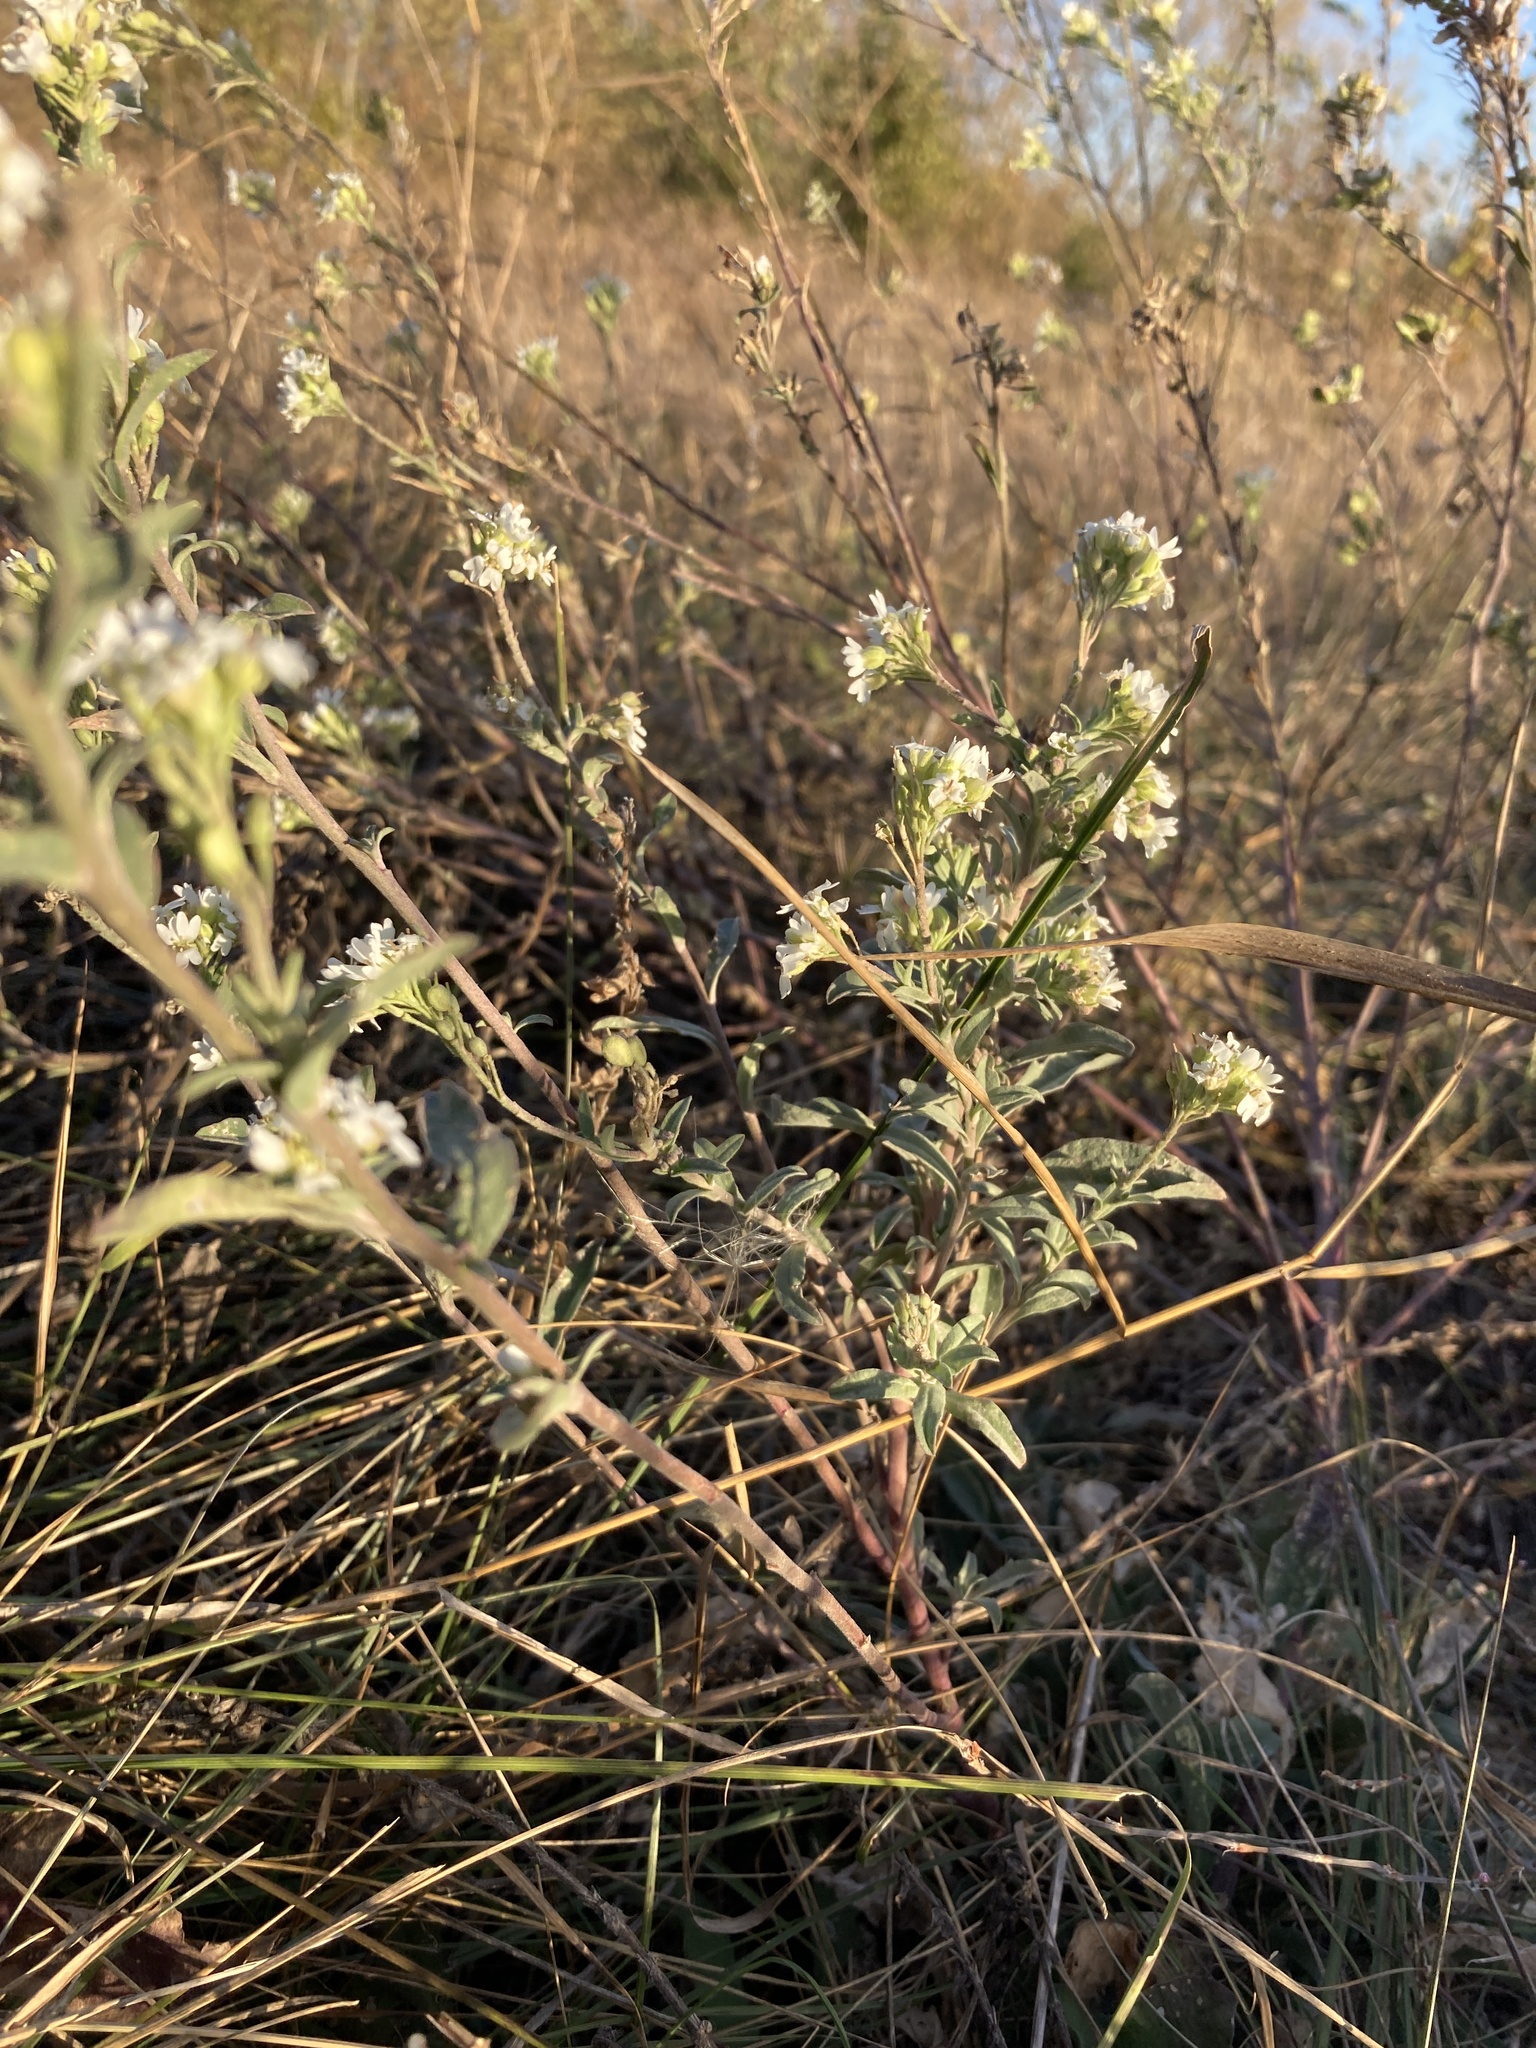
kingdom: Plantae
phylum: Tracheophyta
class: Magnoliopsida
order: Brassicales
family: Brassicaceae
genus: Berteroa
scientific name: Berteroa incana
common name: Hoary alison
